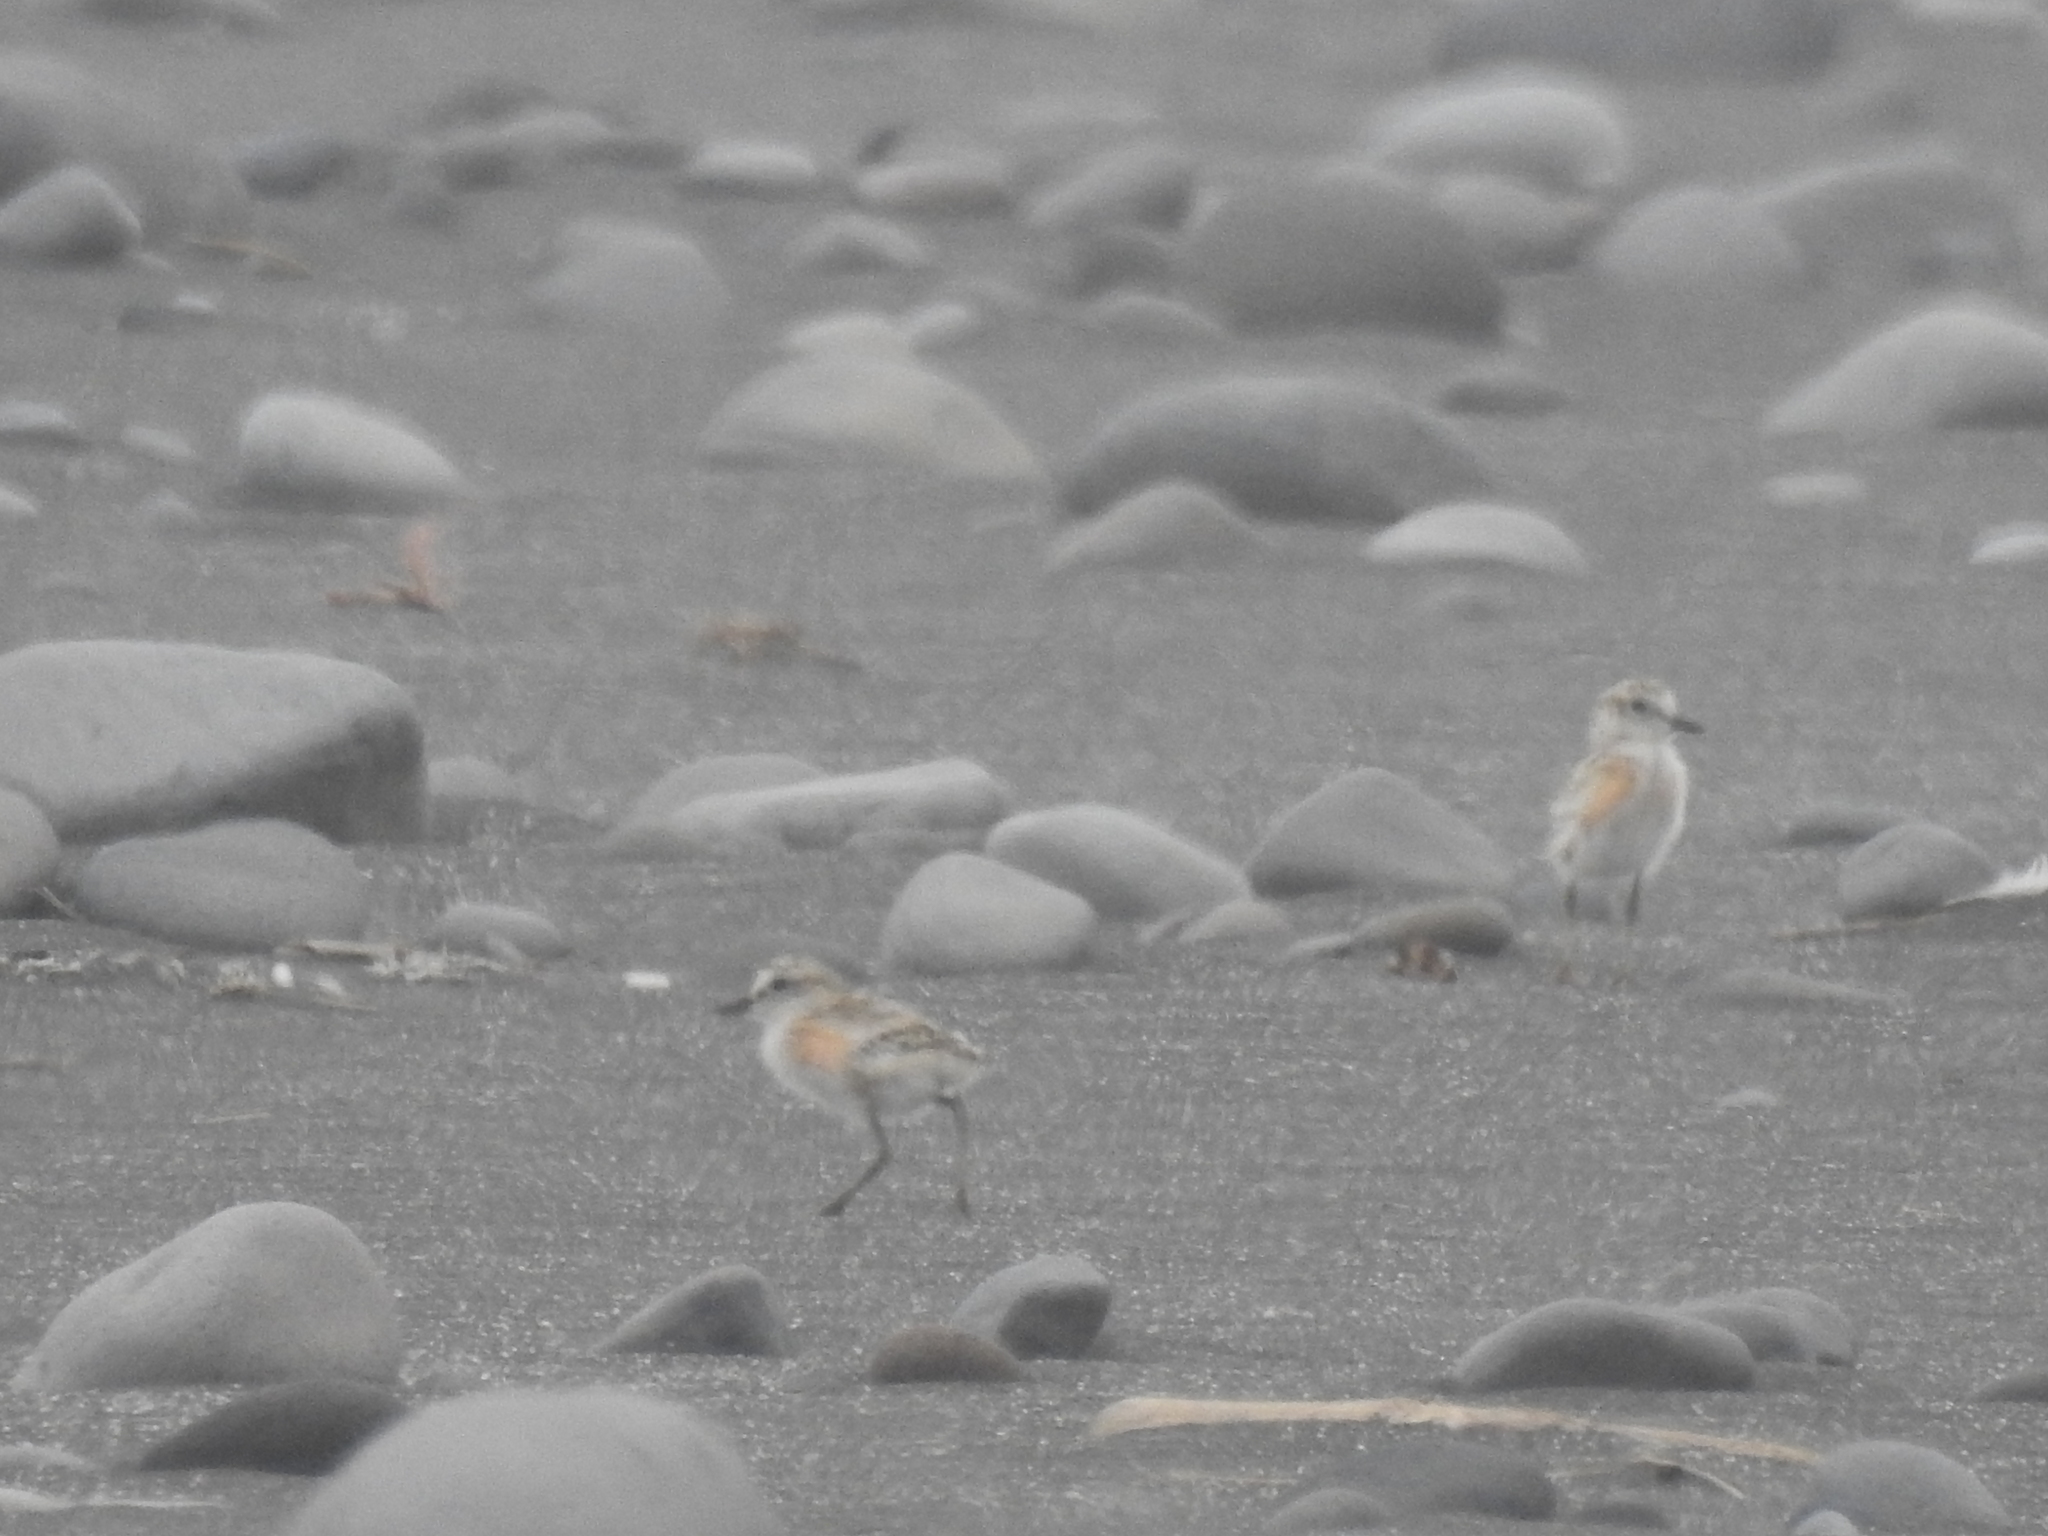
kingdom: Animalia
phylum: Chordata
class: Aves
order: Charadriiformes
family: Charadriidae
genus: Anarhynchus
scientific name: Anarhynchus
